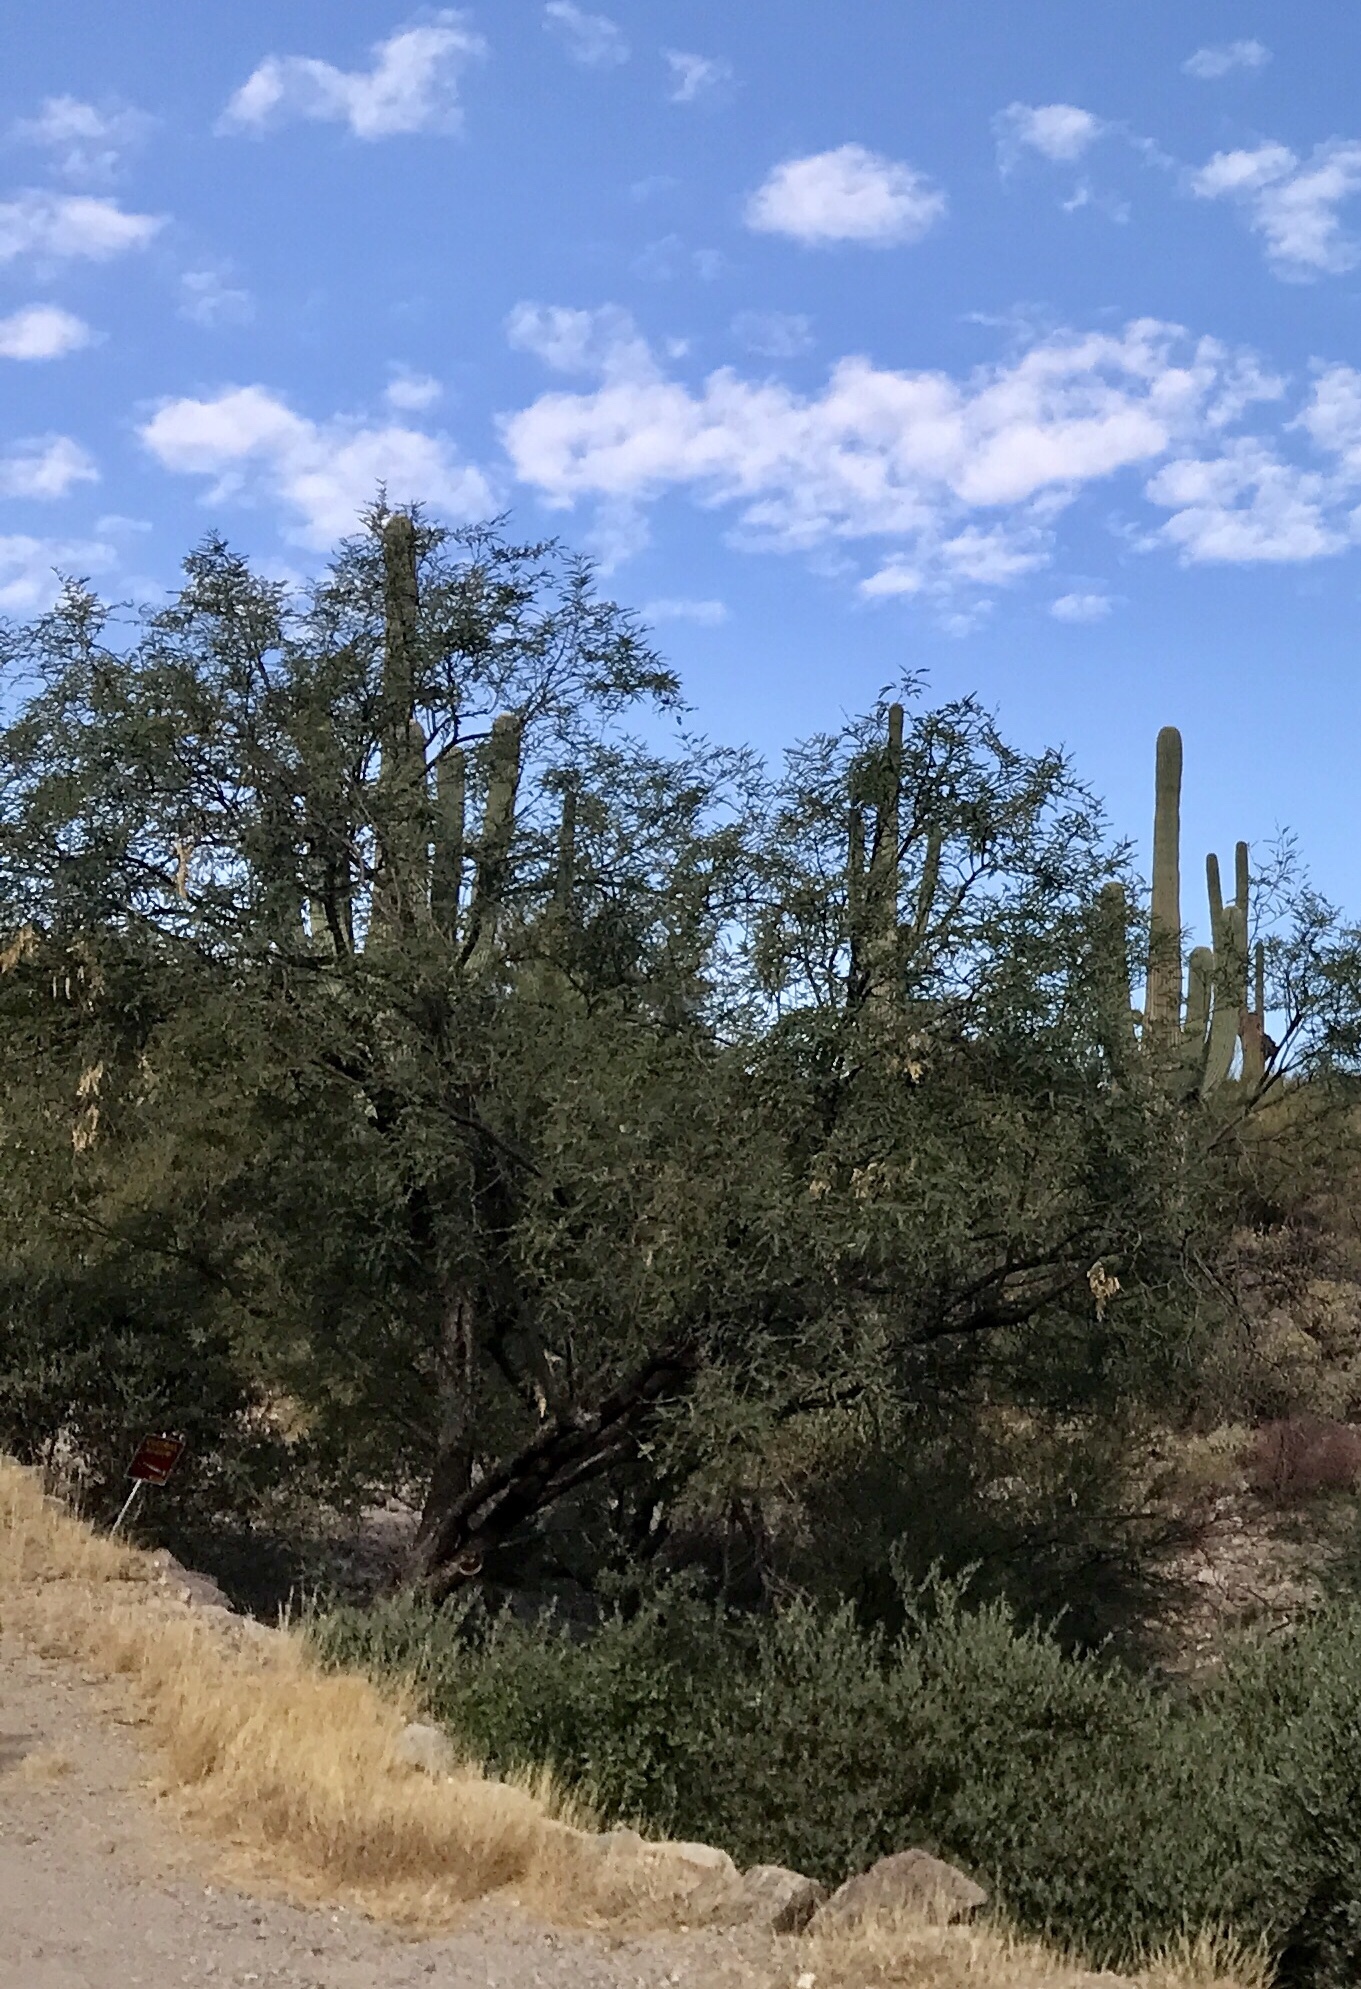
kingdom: Plantae
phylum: Tracheophyta
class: Magnoliopsida
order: Fabales
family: Fabaceae
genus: Olneya
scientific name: Olneya tesota
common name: Desert ironwood
